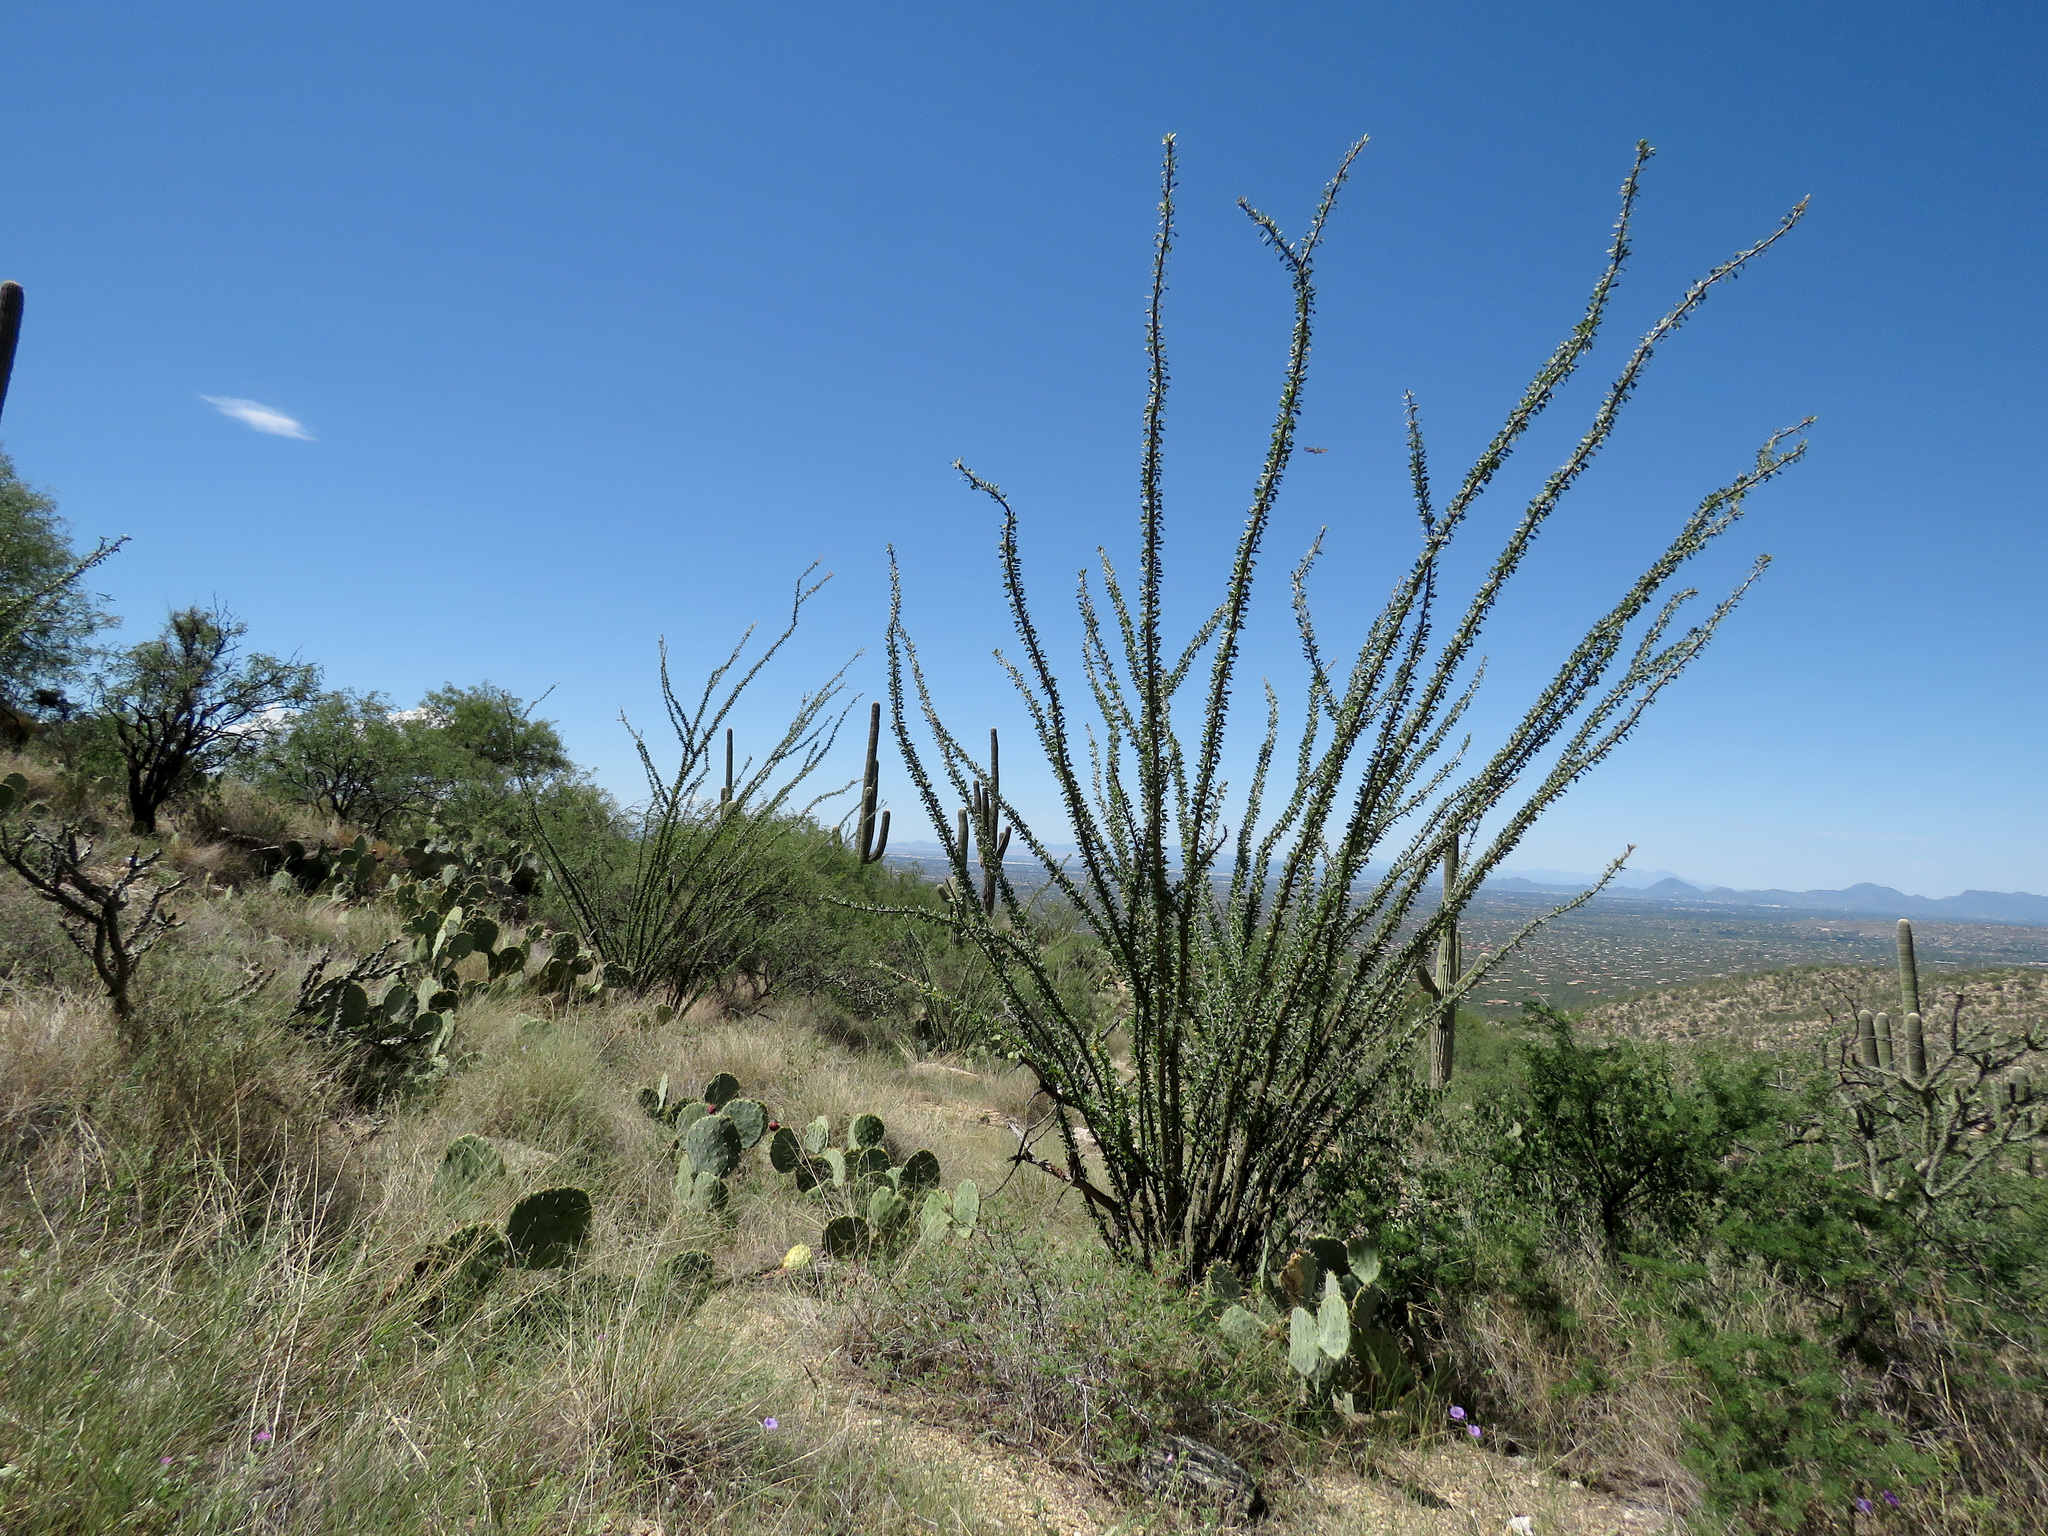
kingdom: Plantae
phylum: Tracheophyta
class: Magnoliopsida
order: Ericales
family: Fouquieriaceae
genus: Fouquieria
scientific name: Fouquieria splendens
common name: Vine-cactus
